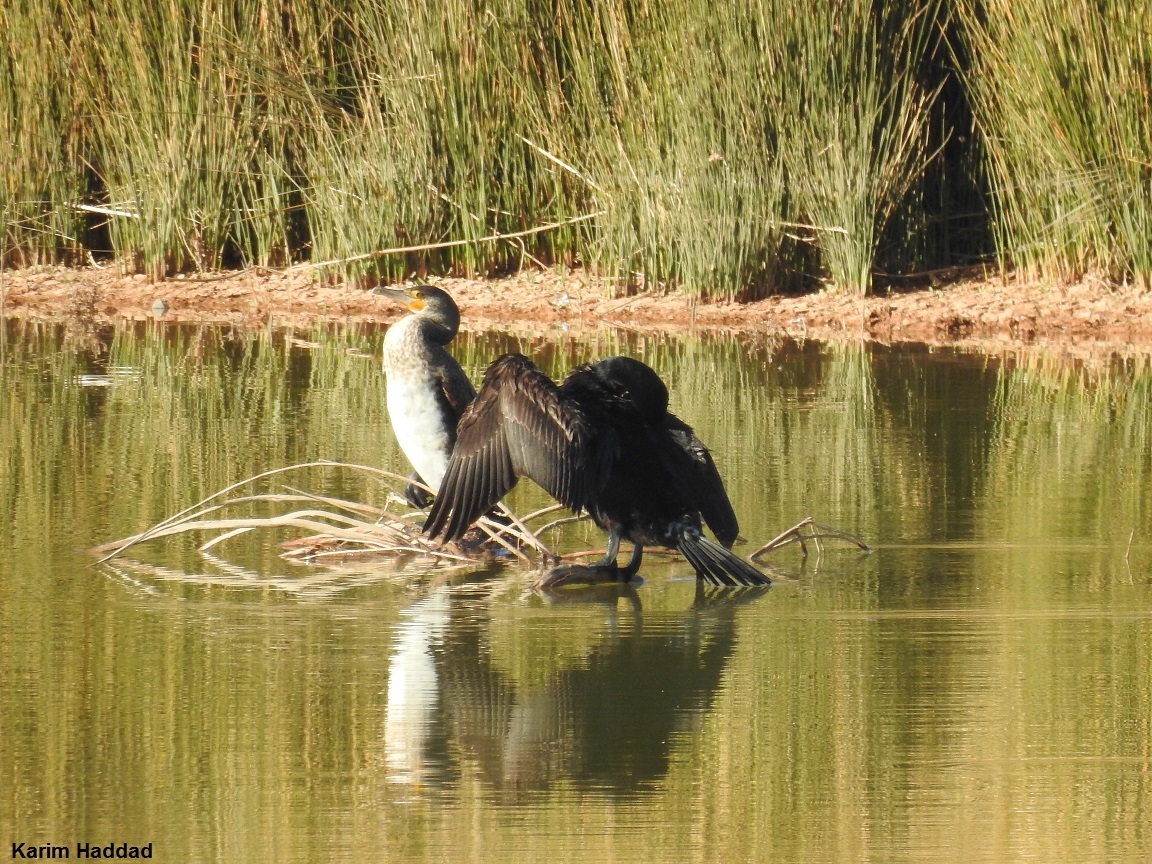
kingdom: Animalia
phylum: Chordata
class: Aves
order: Suliformes
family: Phalacrocoracidae
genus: Phalacrocorax
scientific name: Phalacrocorax carbo
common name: Great cormorant
